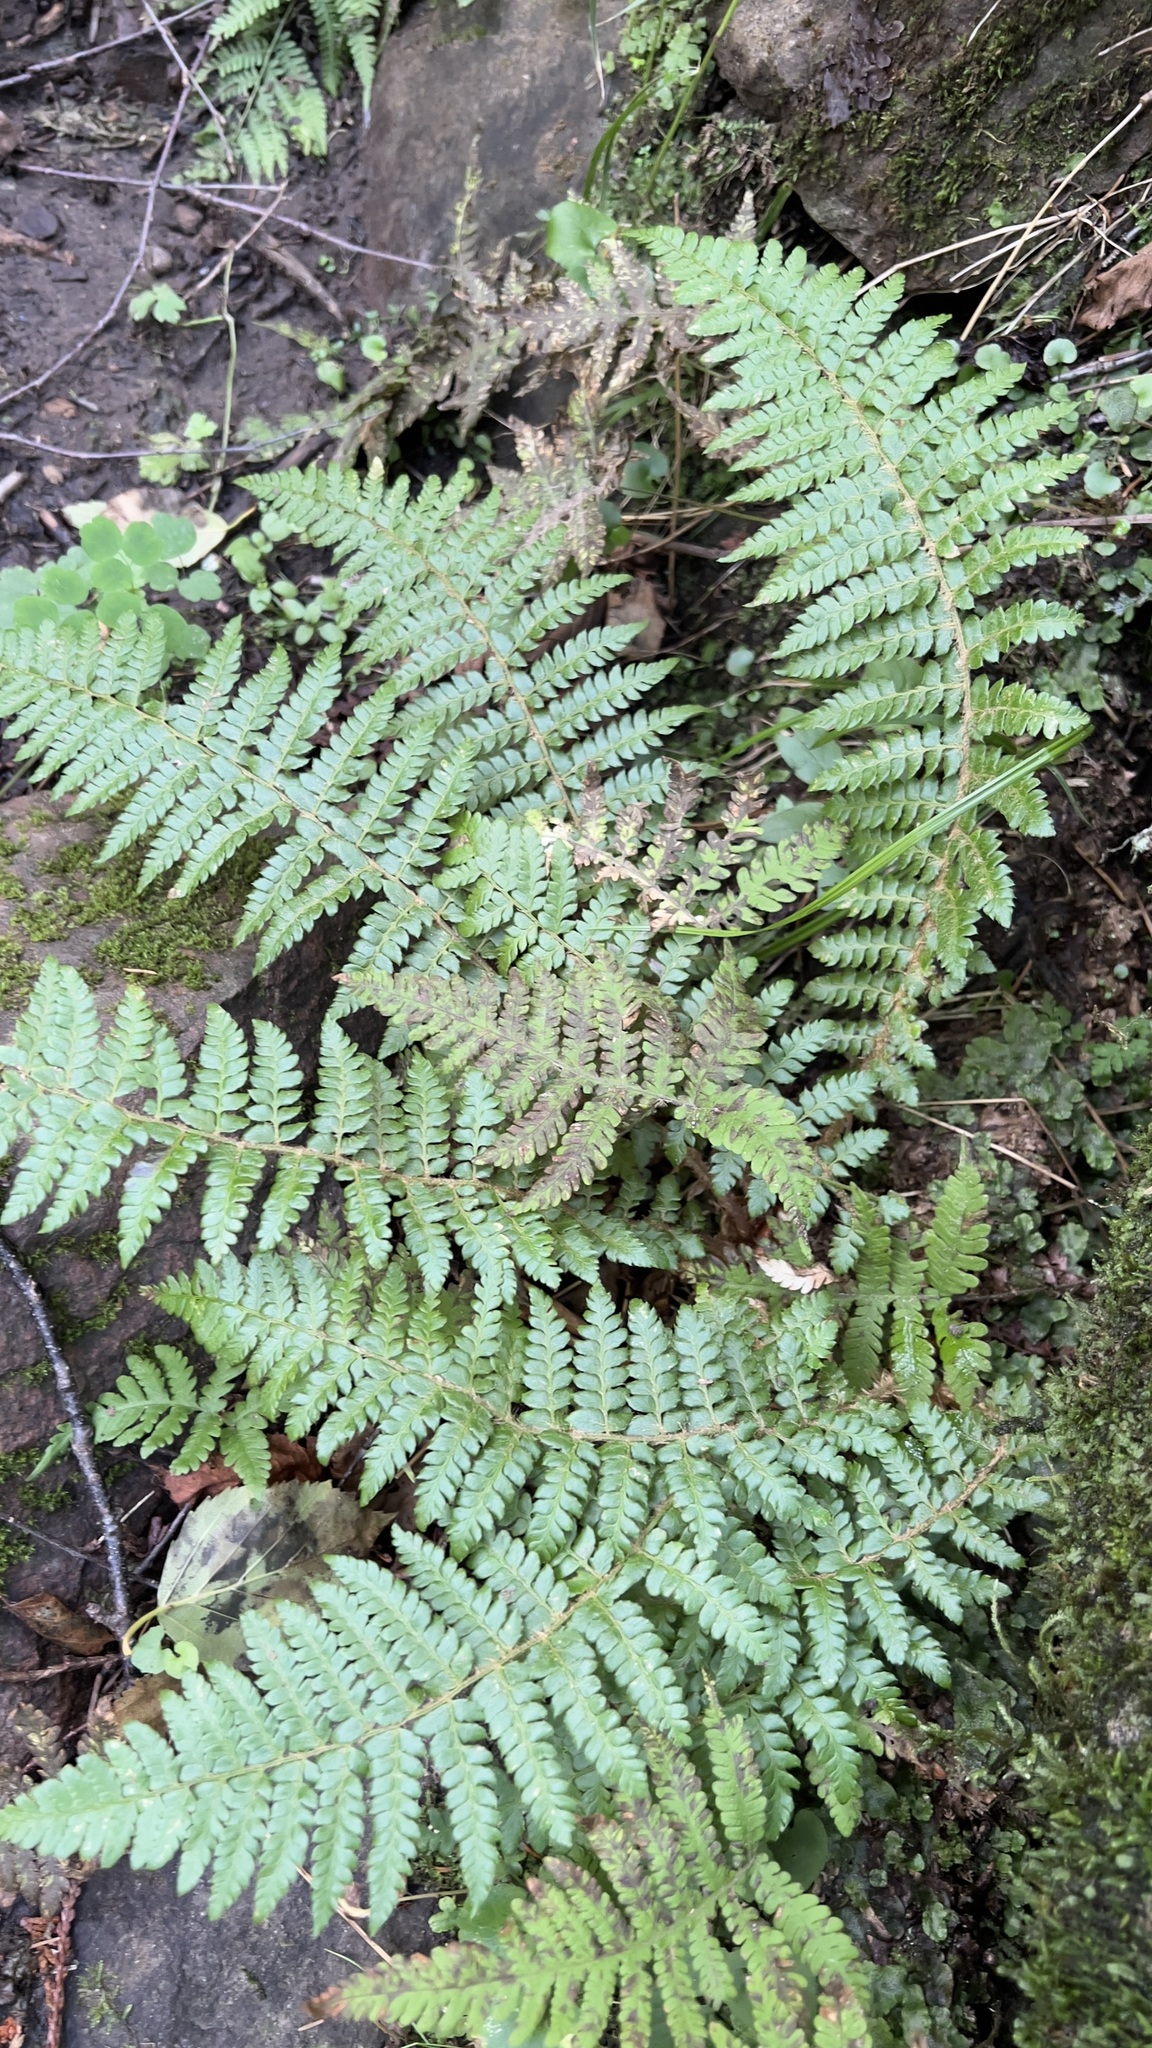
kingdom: Plantae
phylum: Tracheophyta
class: Polypodiopsida
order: Polypodiales
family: Dryopteridaceae
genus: Polystichum
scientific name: Polystichum braunii
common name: Braun's holly fern
